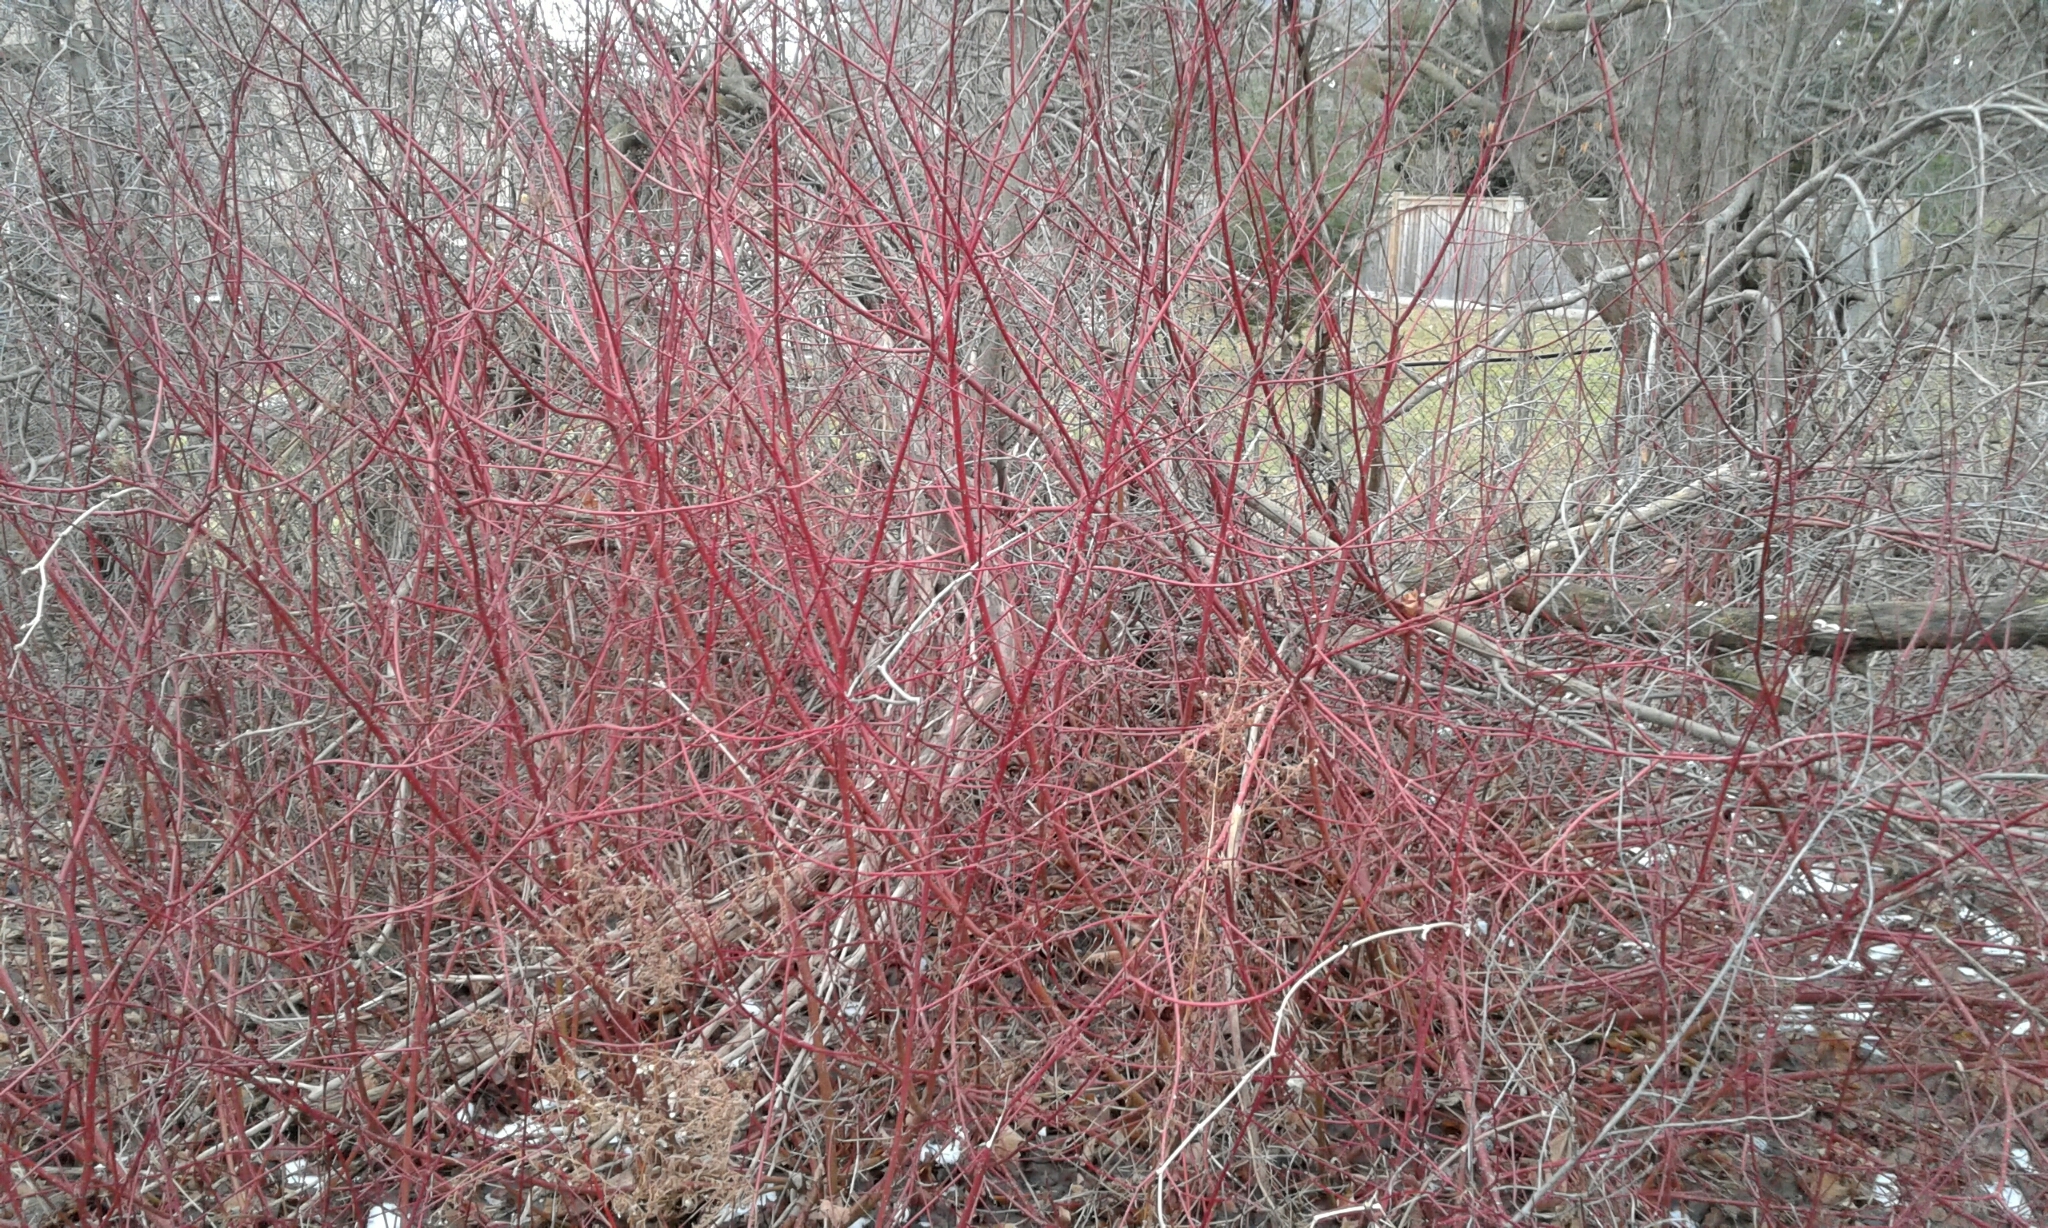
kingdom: Plantae
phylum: Tracheophyta
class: Magnoliopsida
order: Cornales
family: Cornaceae
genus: Cornus
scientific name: Cornus sericea
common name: Red-osier dogwood
